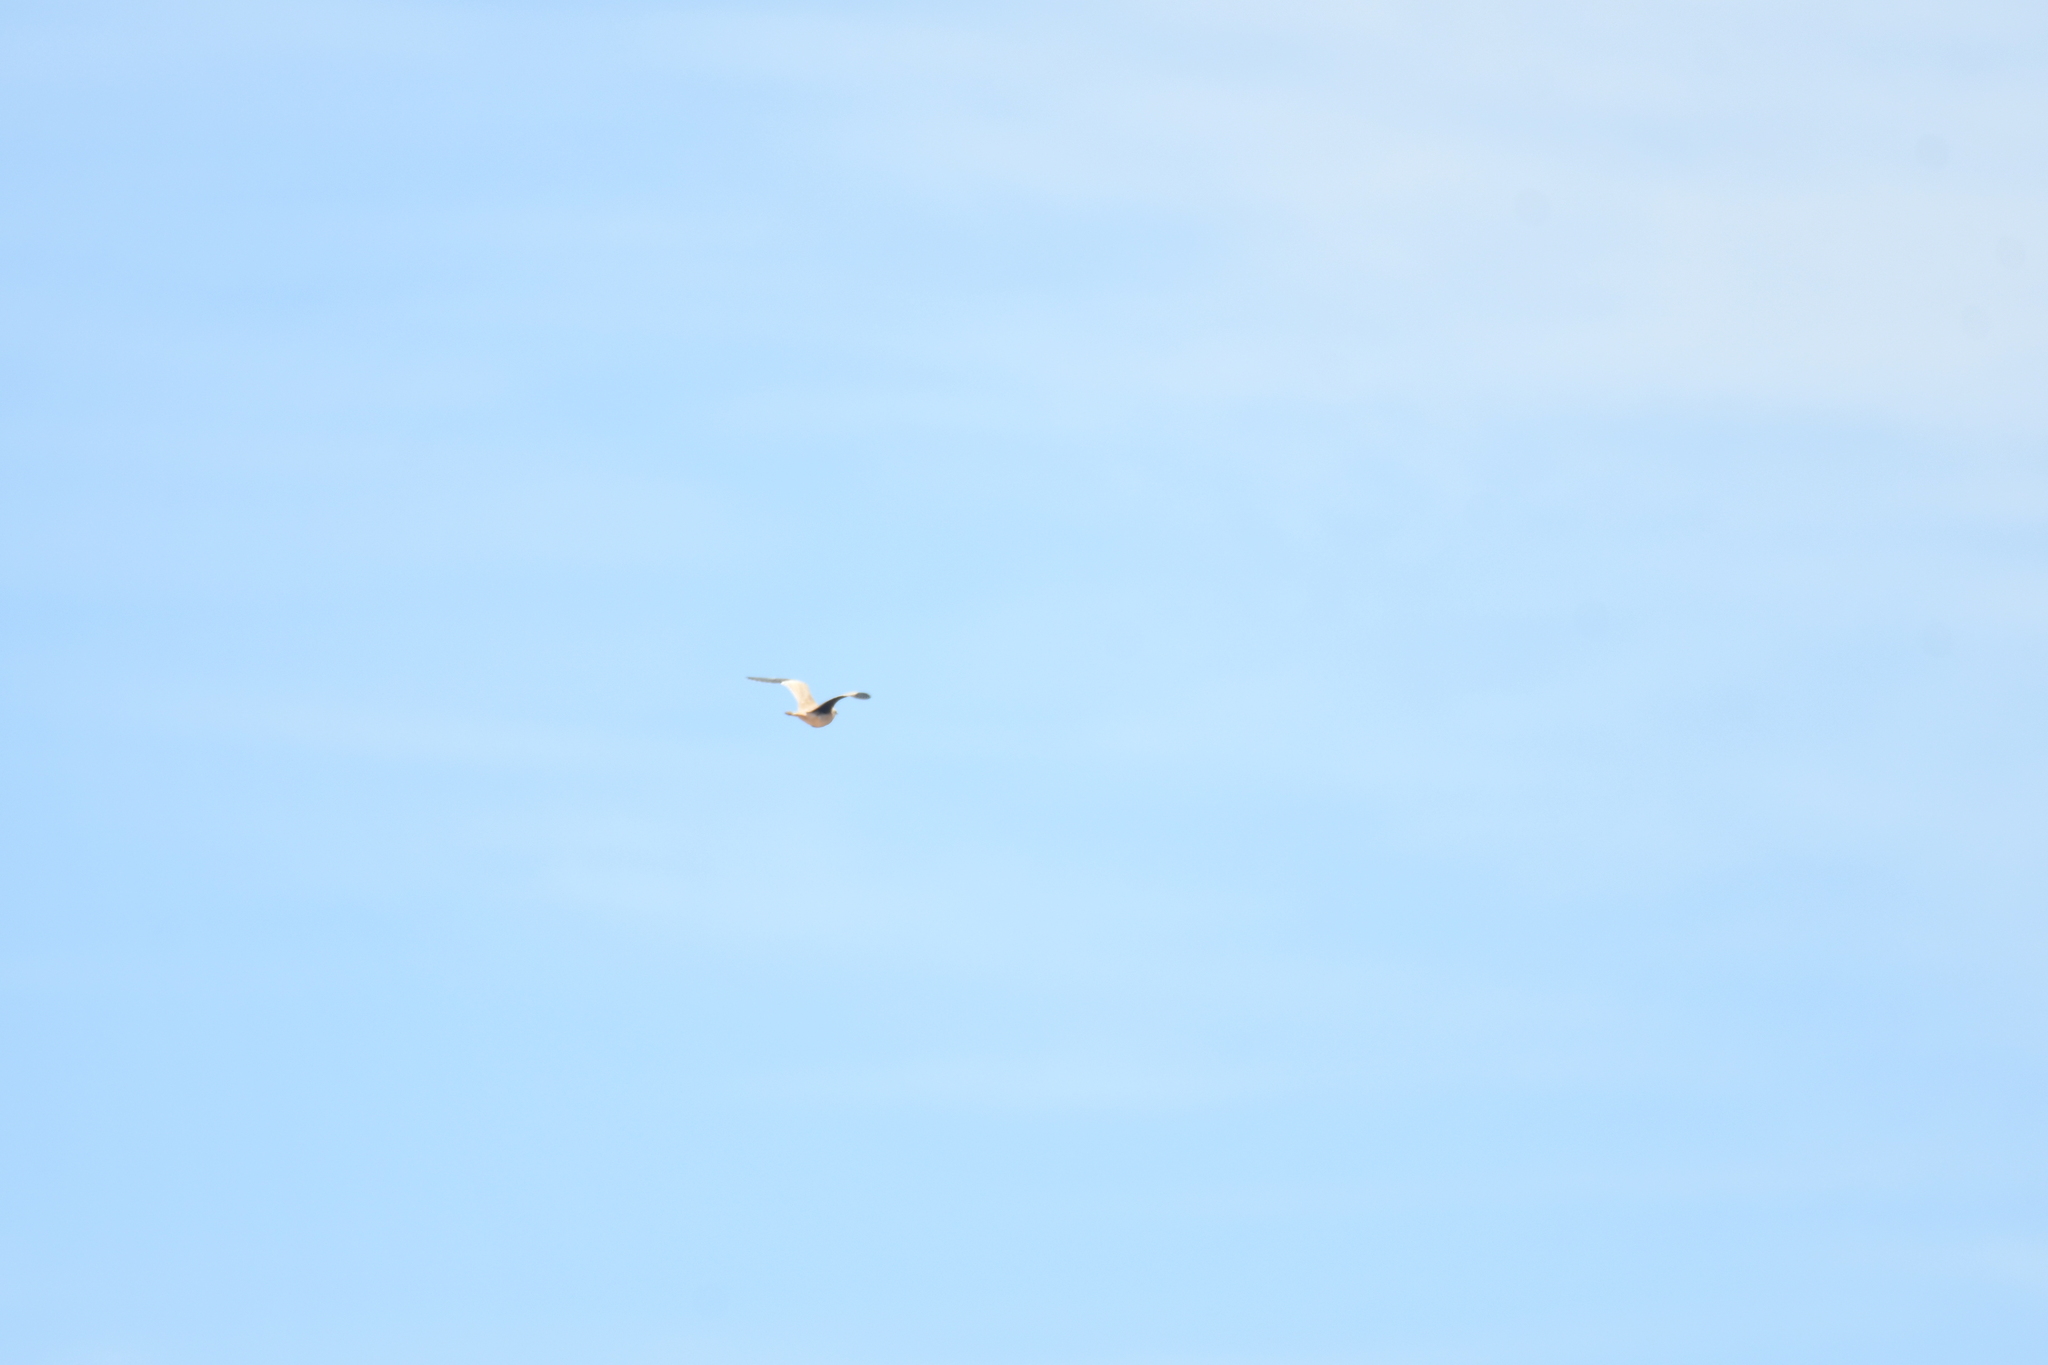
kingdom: Animalia
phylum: Chordata
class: Aves
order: Accipitriformes
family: Accipitridae
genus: Elanus
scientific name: Elanus caeruleus
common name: Black-winged kite
